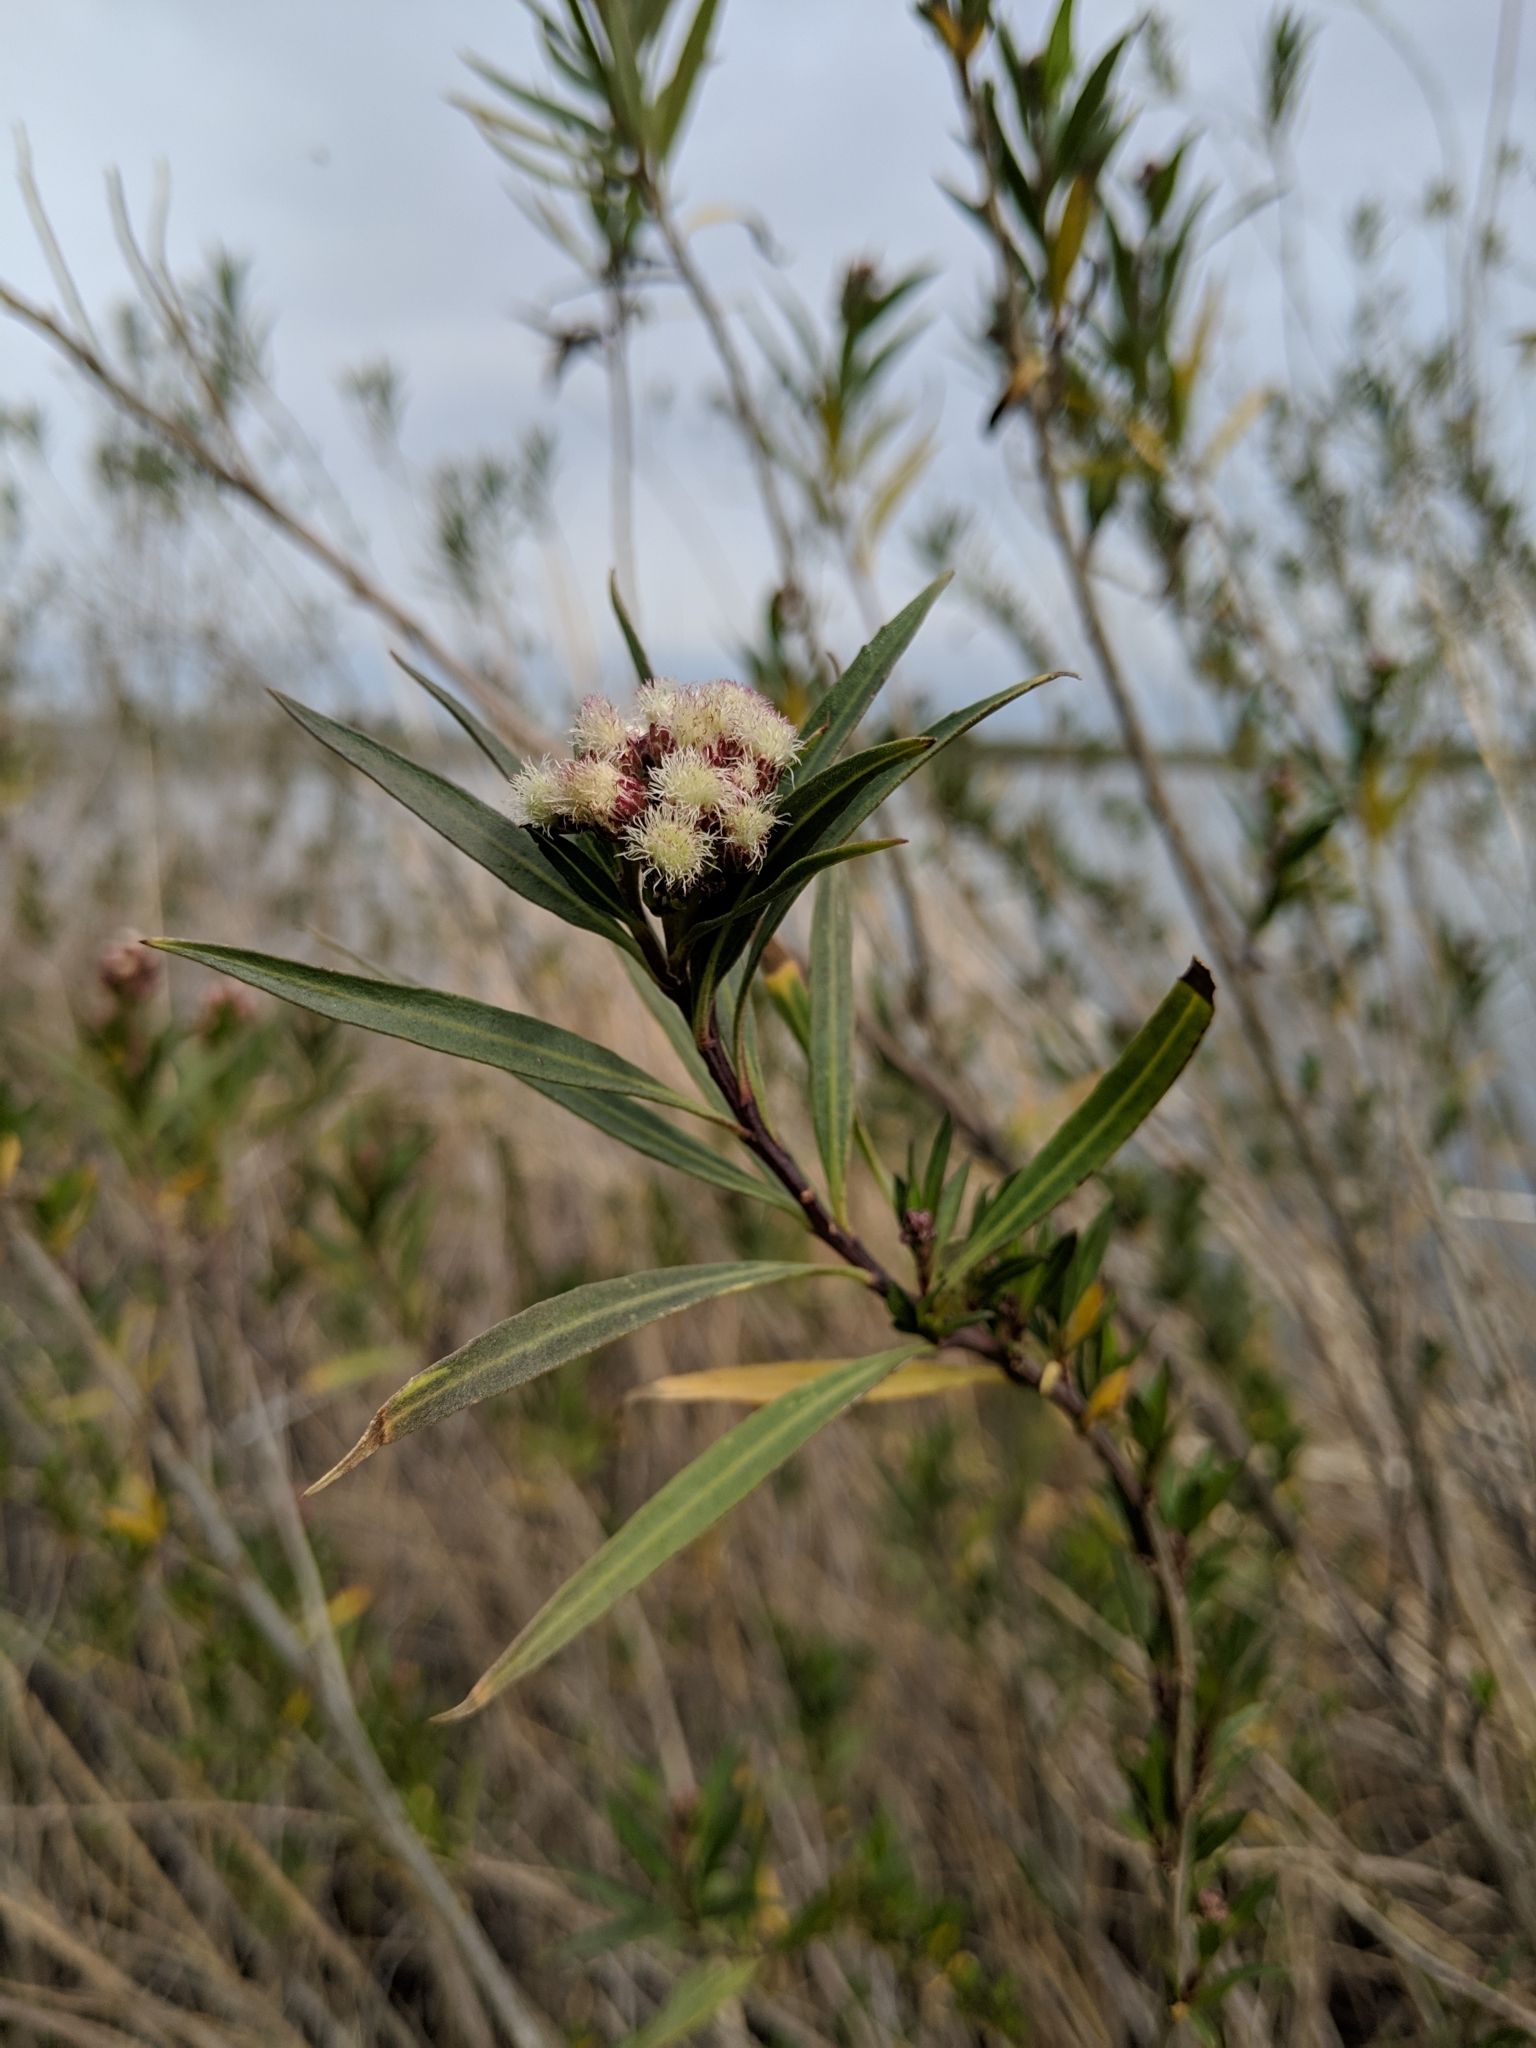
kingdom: Plantae
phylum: Tracheophyta
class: Magnoliopsida
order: Asterales
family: Asteraceae
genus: Baccharis
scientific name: Baccharis salicifolia
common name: Sticky baccharis
